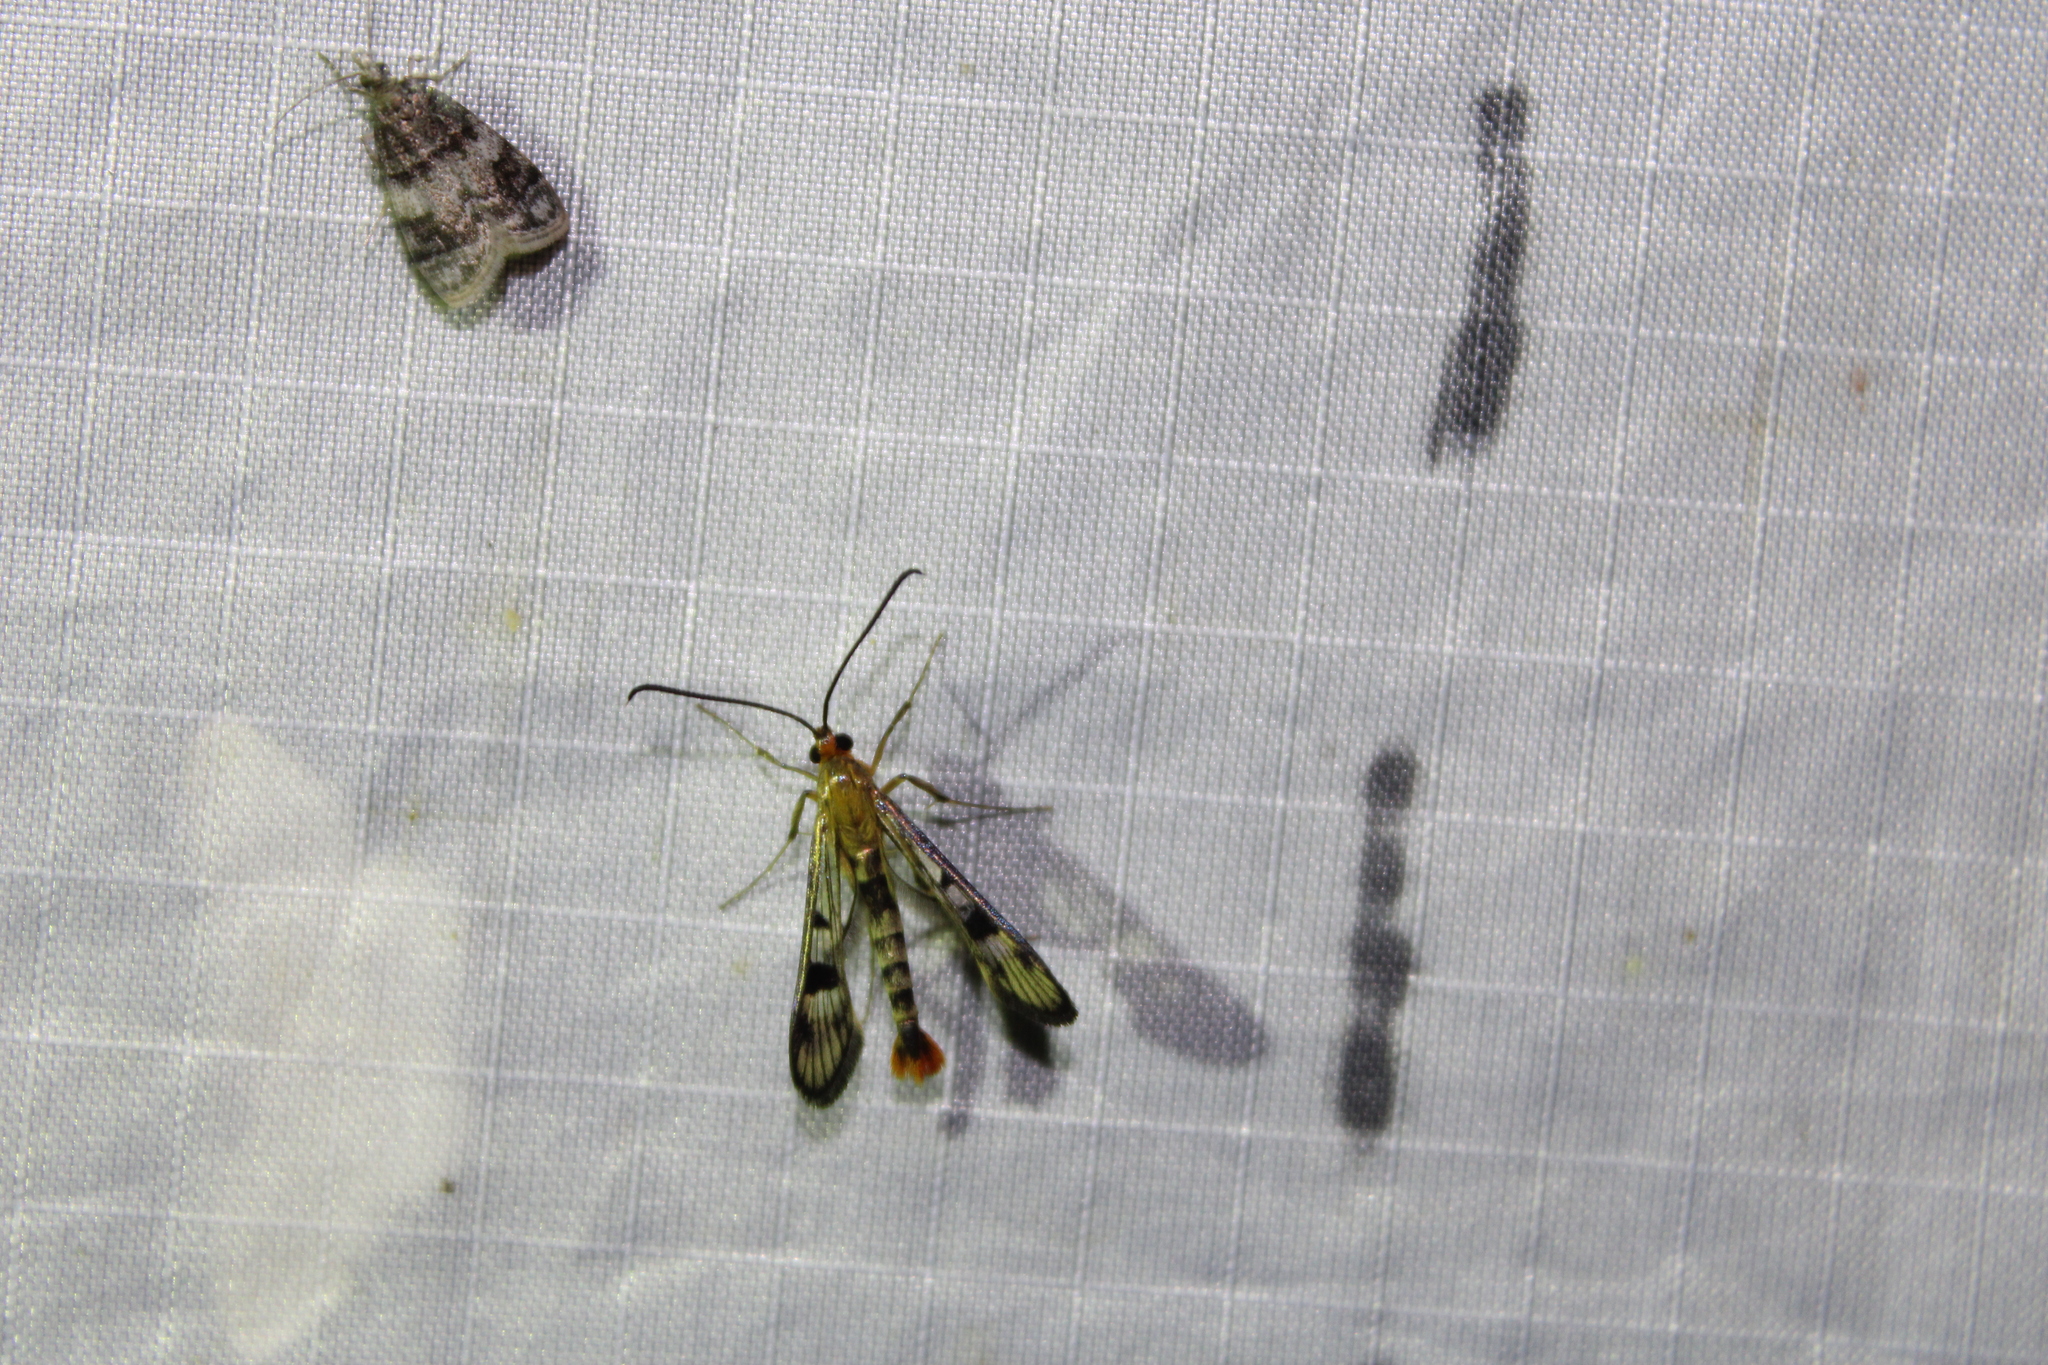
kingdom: Animalia
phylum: Arthropoda
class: Insecta
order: Lepidoptera
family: Sesiidae
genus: Synanthedon
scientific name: Synanthedon acerni
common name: Maple callus borer moth
